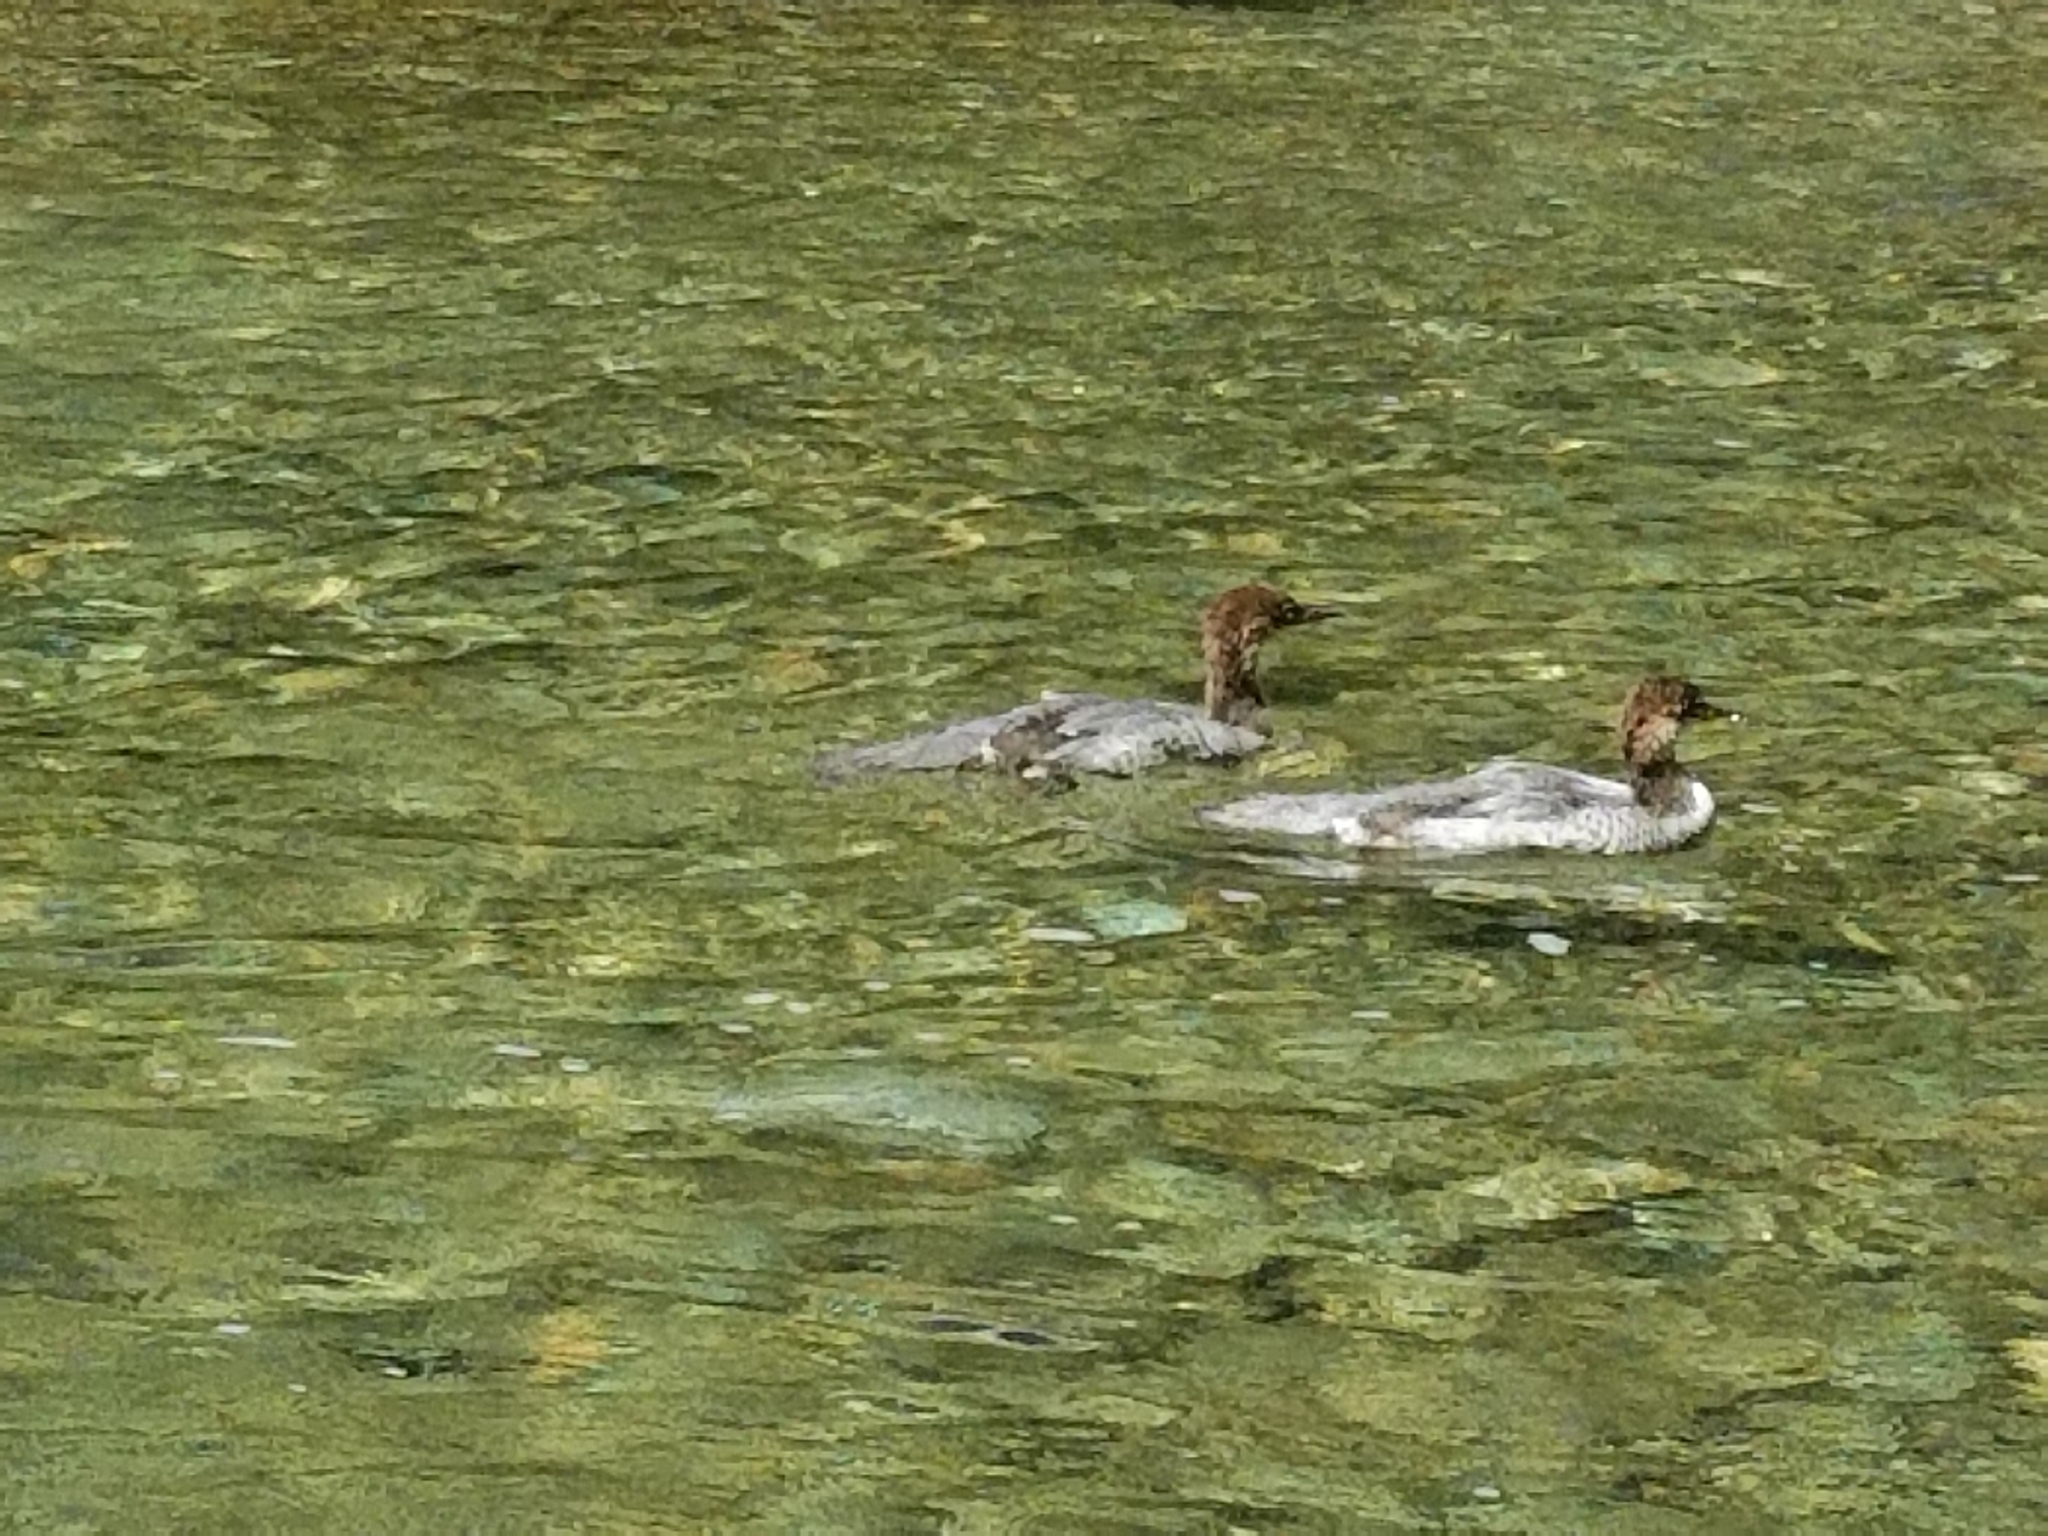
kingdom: Animalia
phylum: Chordata
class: Aves
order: Anseriformes
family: Anatidae
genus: Mergus
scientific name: Mergus merganser
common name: Common merganser
